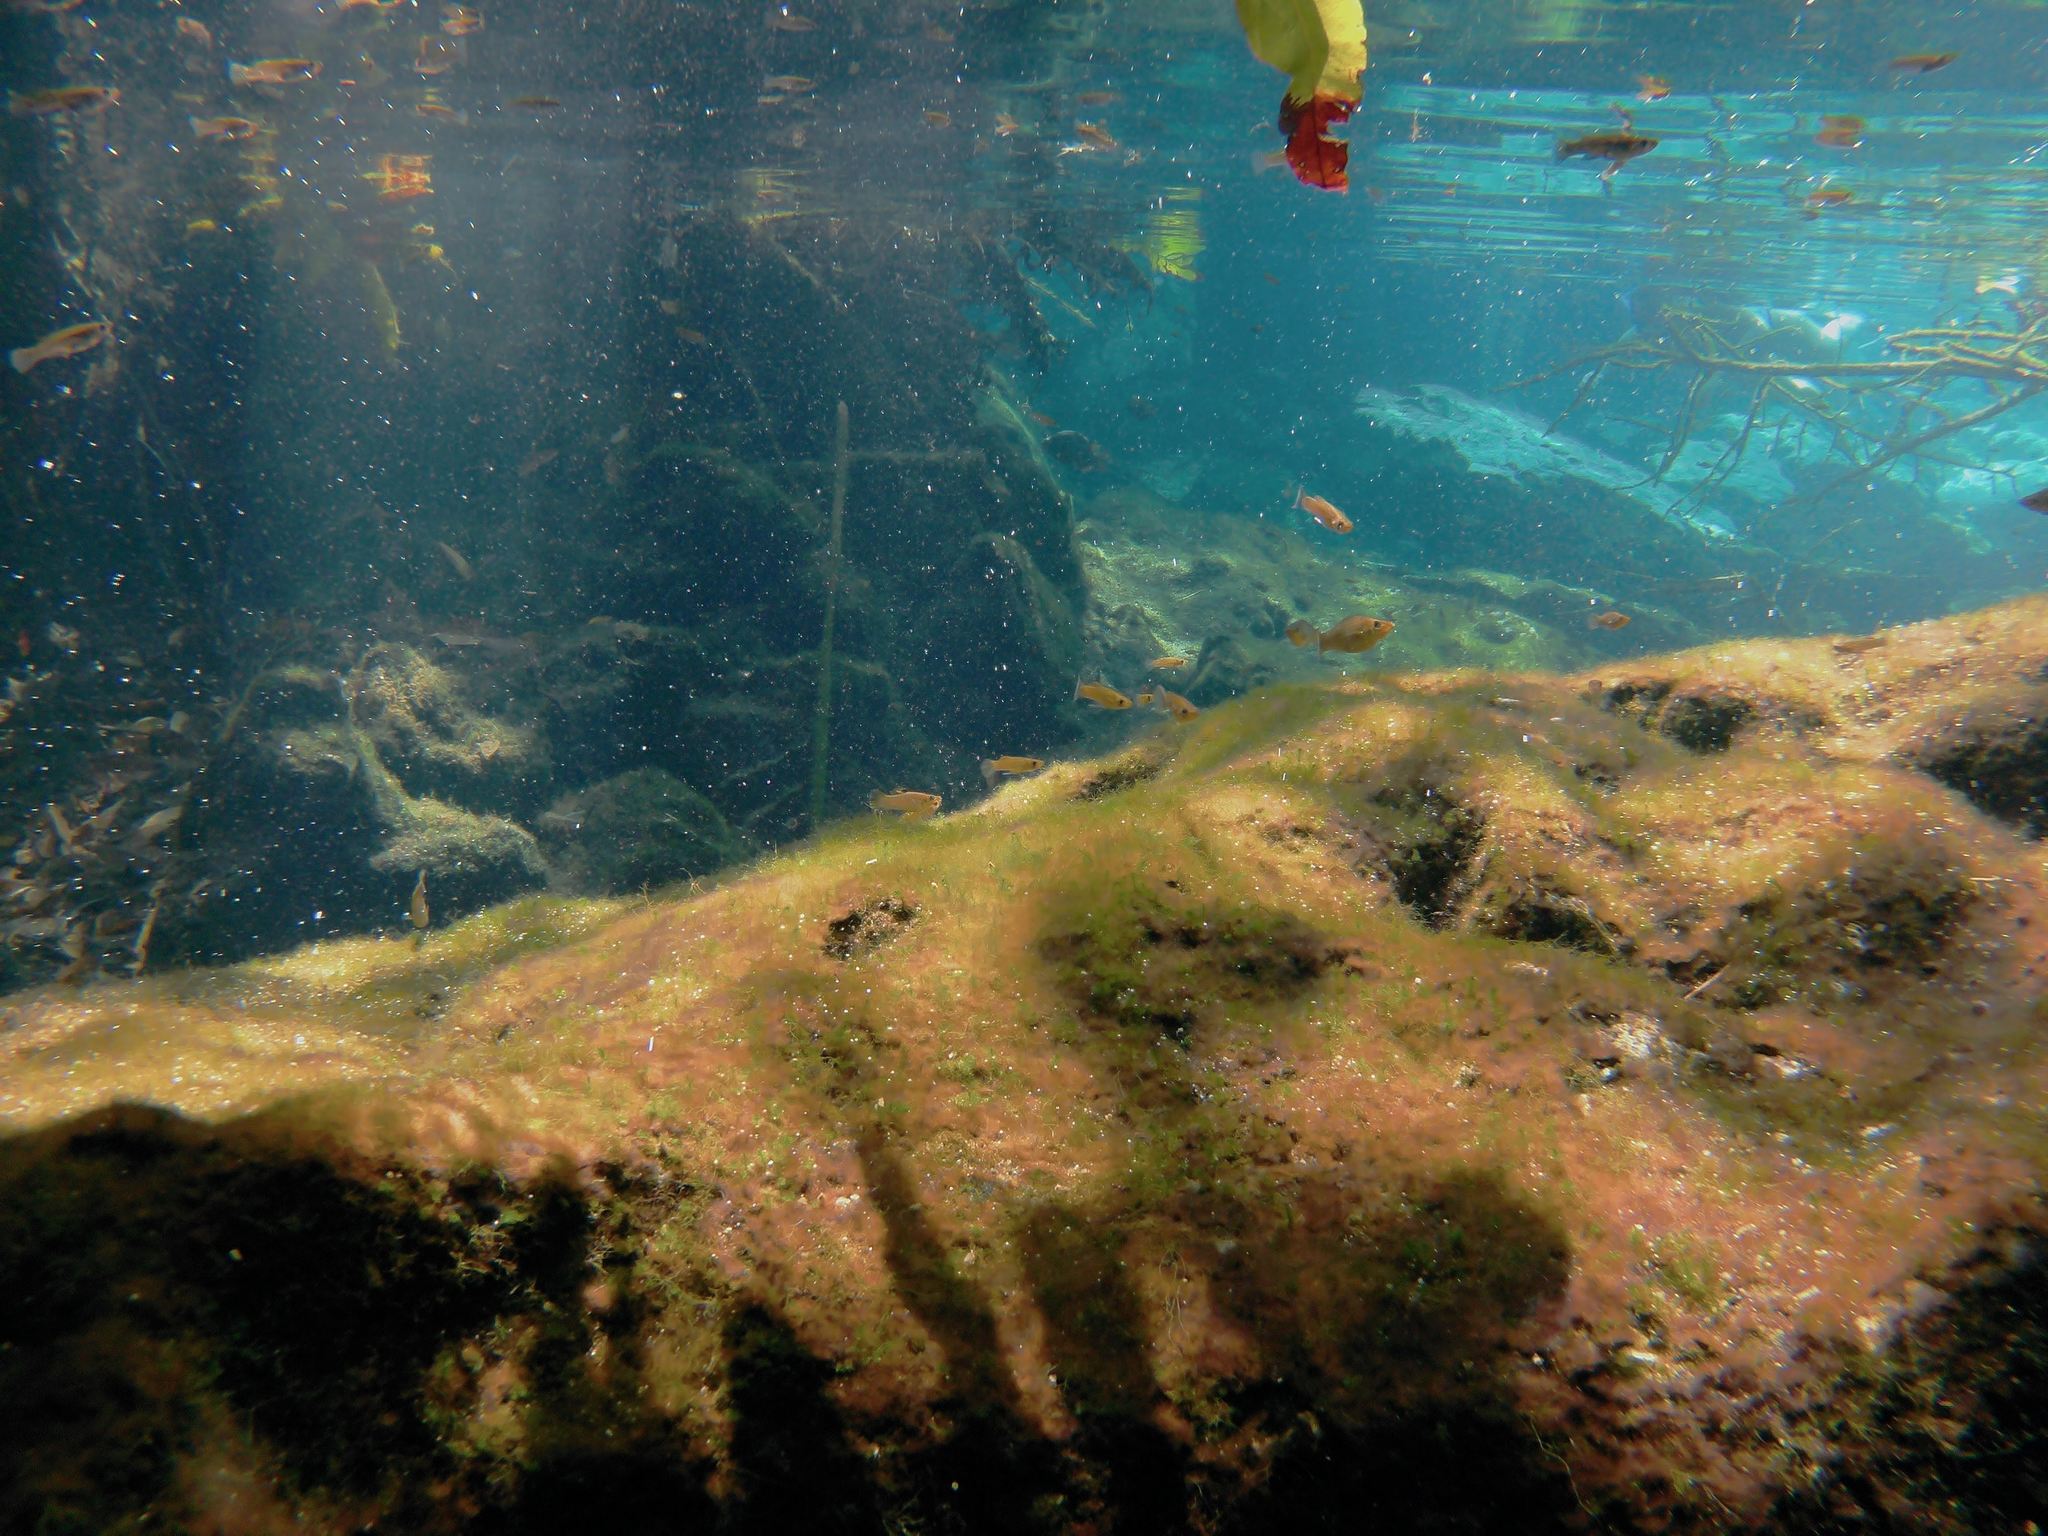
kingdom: Animalia
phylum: Chordata
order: Cyprinodontiformes
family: Poeciliidae
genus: Poecilia
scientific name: Poecilia velifera
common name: Sail-fin molly
